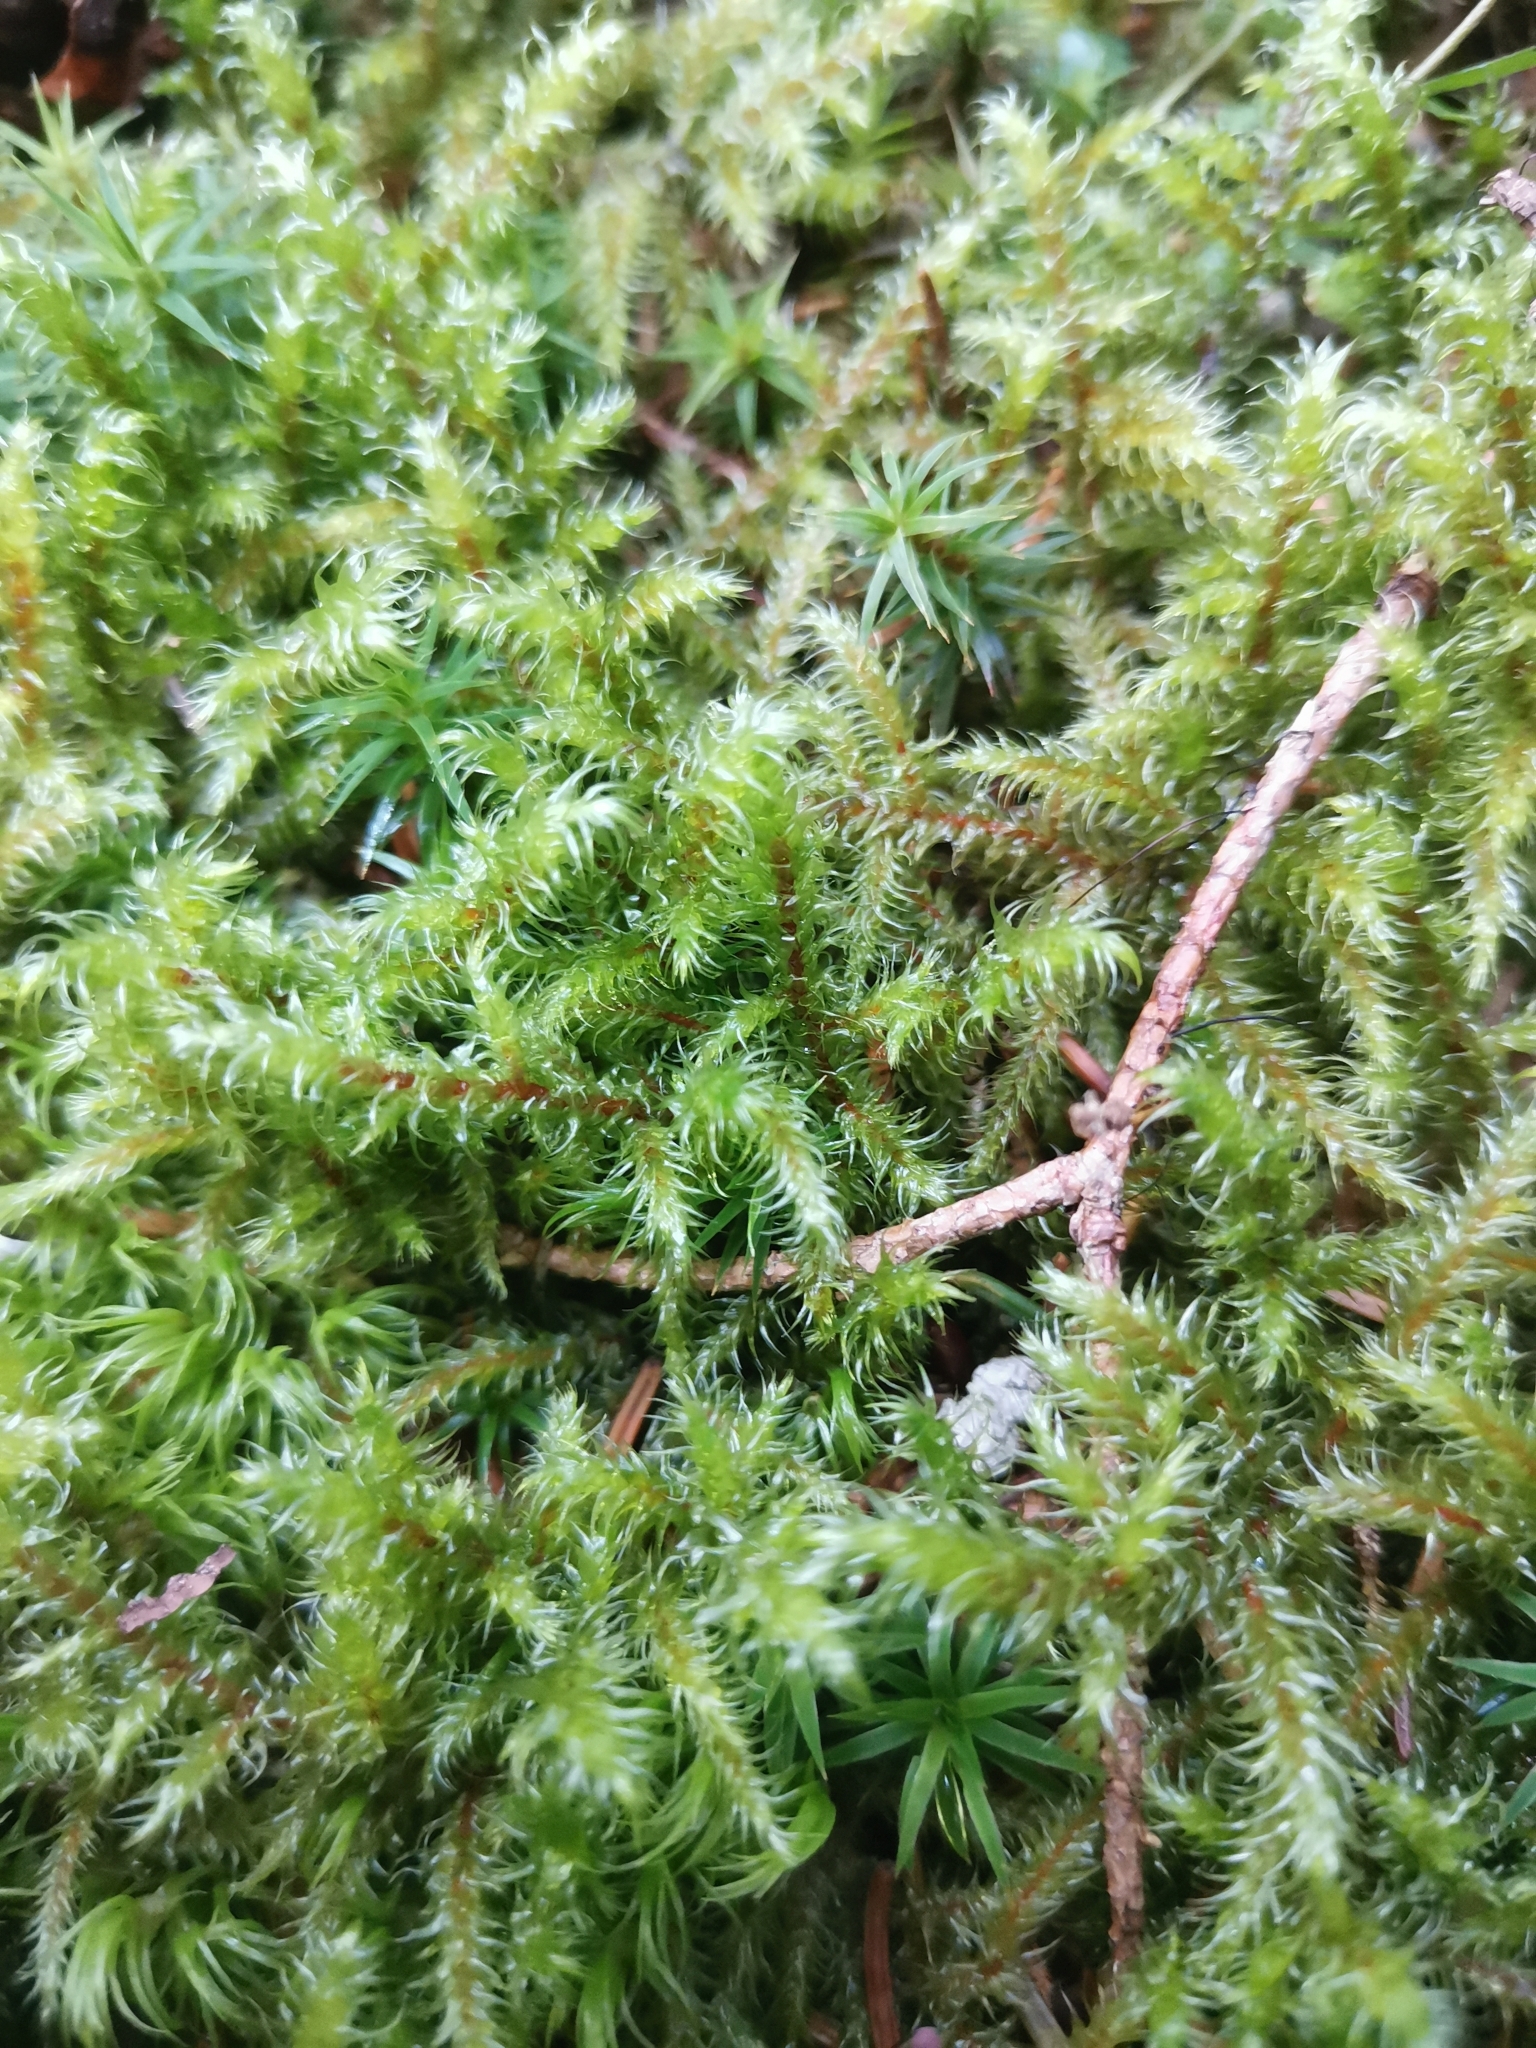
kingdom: Plantae
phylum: Bryophyta
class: Bryopsida
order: Hypnales
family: Hylocomiaceae
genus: Rhytidiadelphus
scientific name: Rhytidiadelphus loreus
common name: Lanky moss
